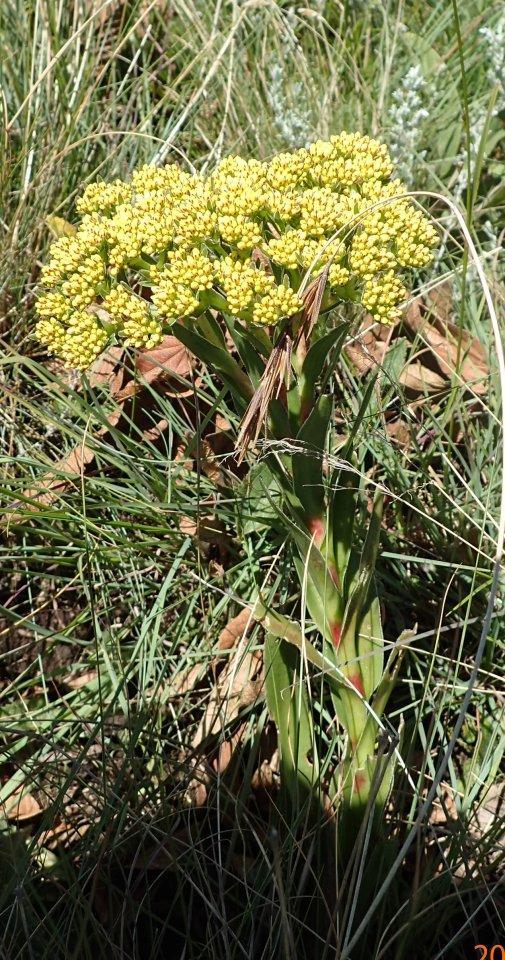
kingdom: Plantae
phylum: Tracheophyta
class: Magnoliopsida
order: Saxifragales
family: Crassulaceae
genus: Crassula
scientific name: Crassula vaginata
